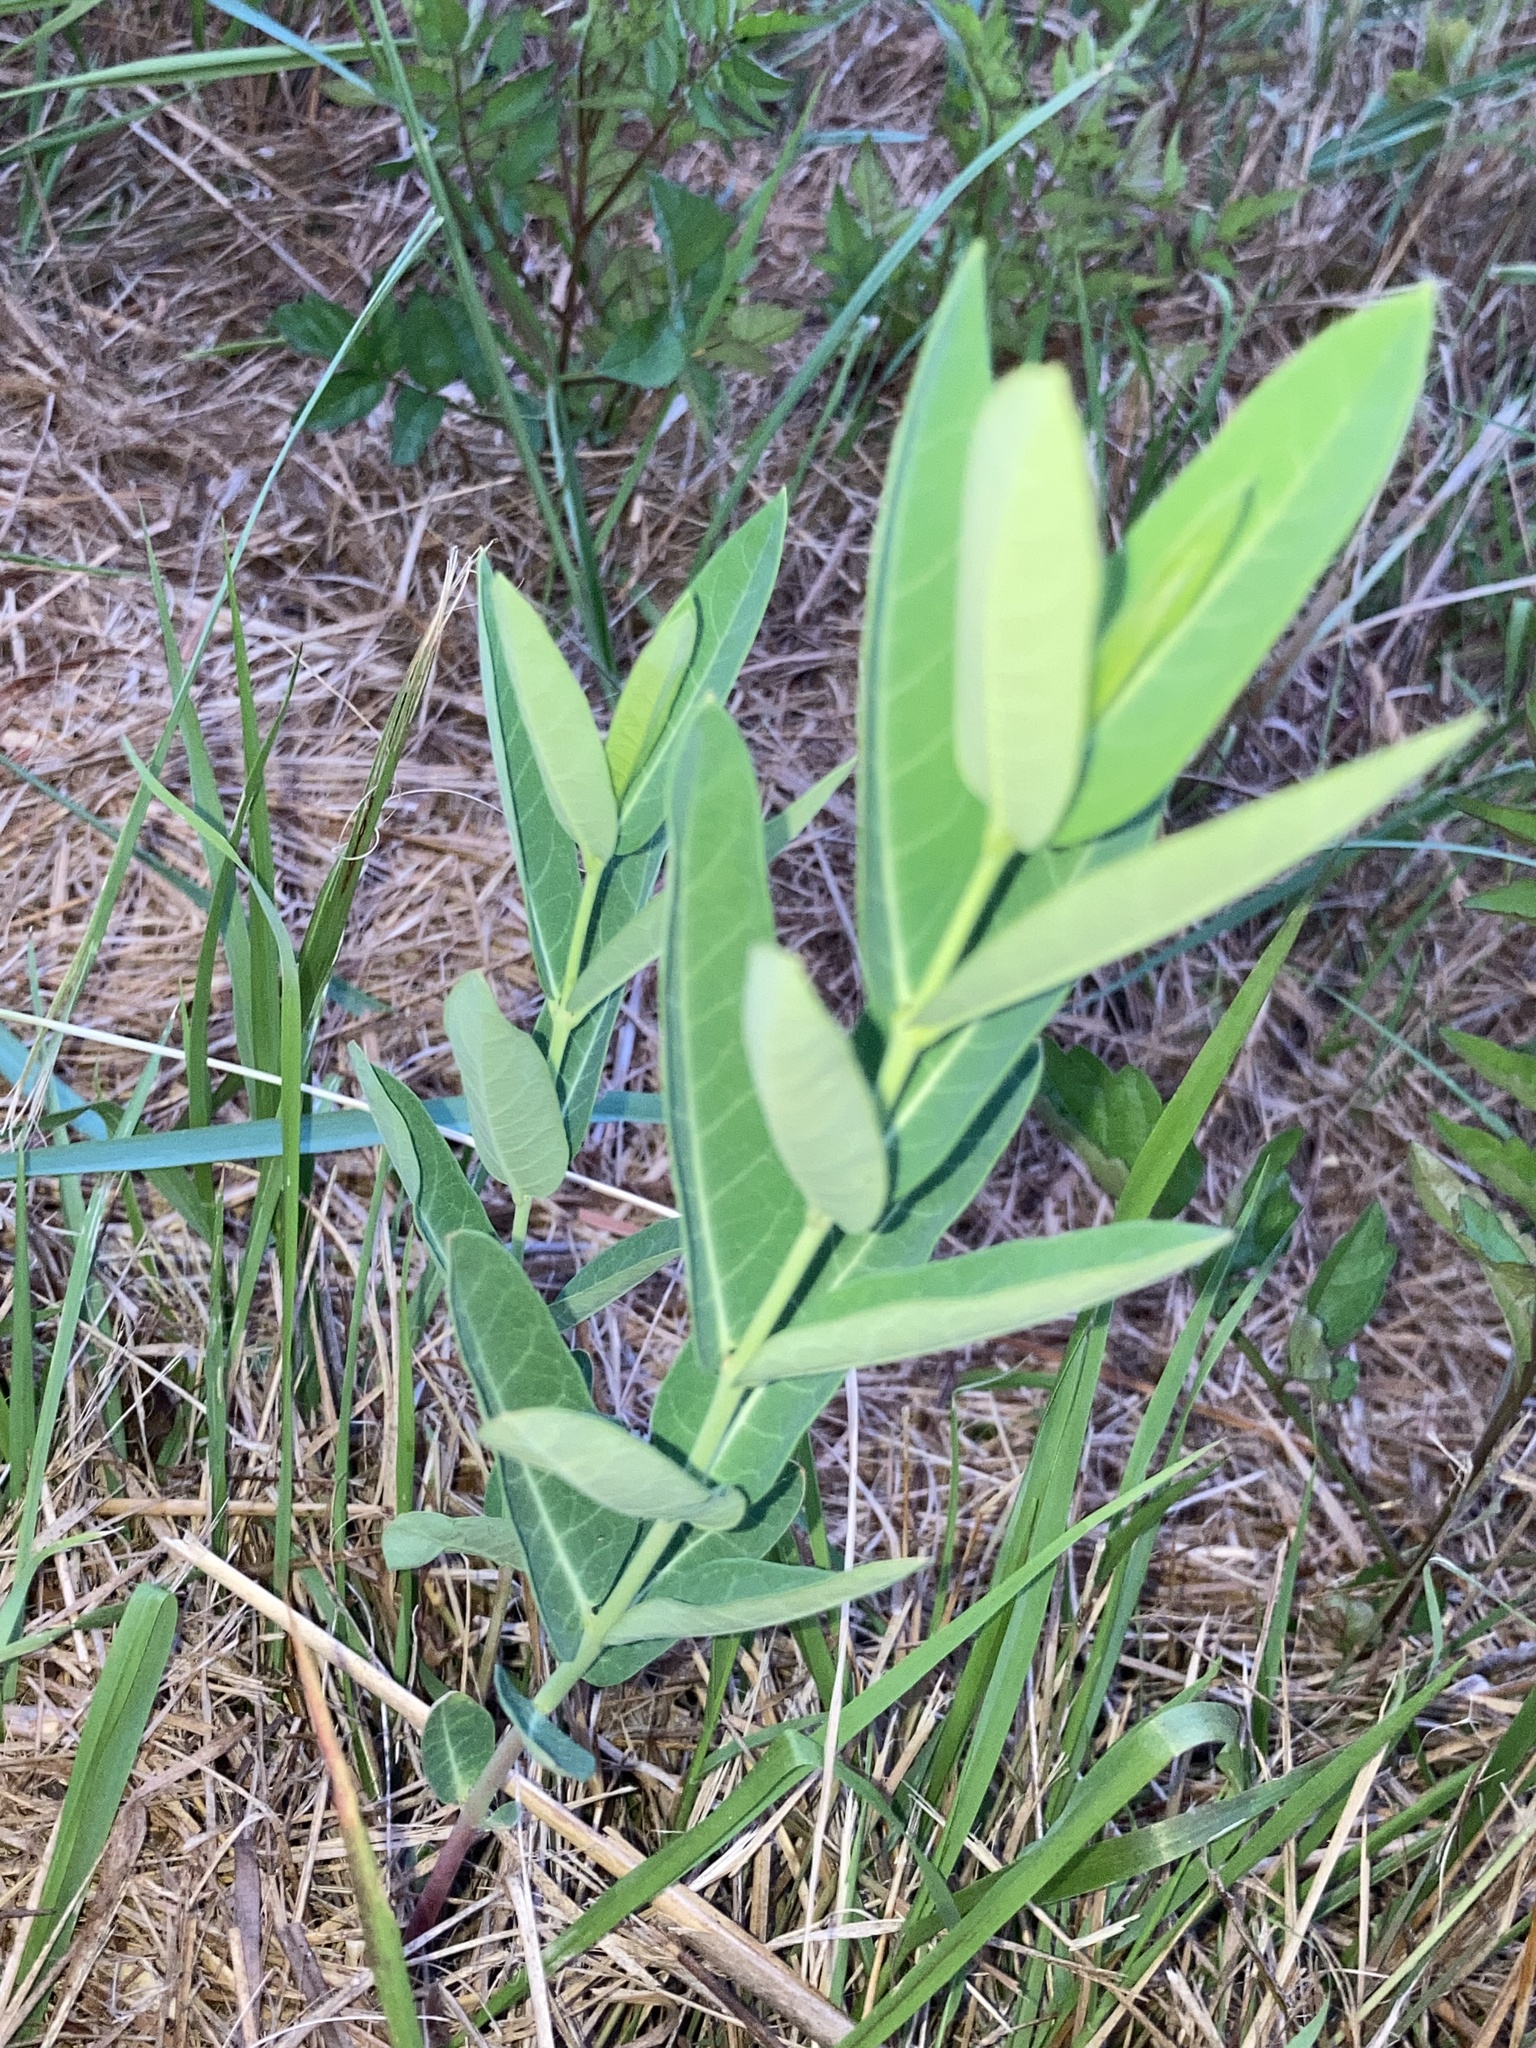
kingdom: Plantae
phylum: Tracheophyta
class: Magnoliopsida
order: Gentianales
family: Apocynaceae
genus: Apocynum
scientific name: Apocynum cannabinum
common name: Hemp dogbane
